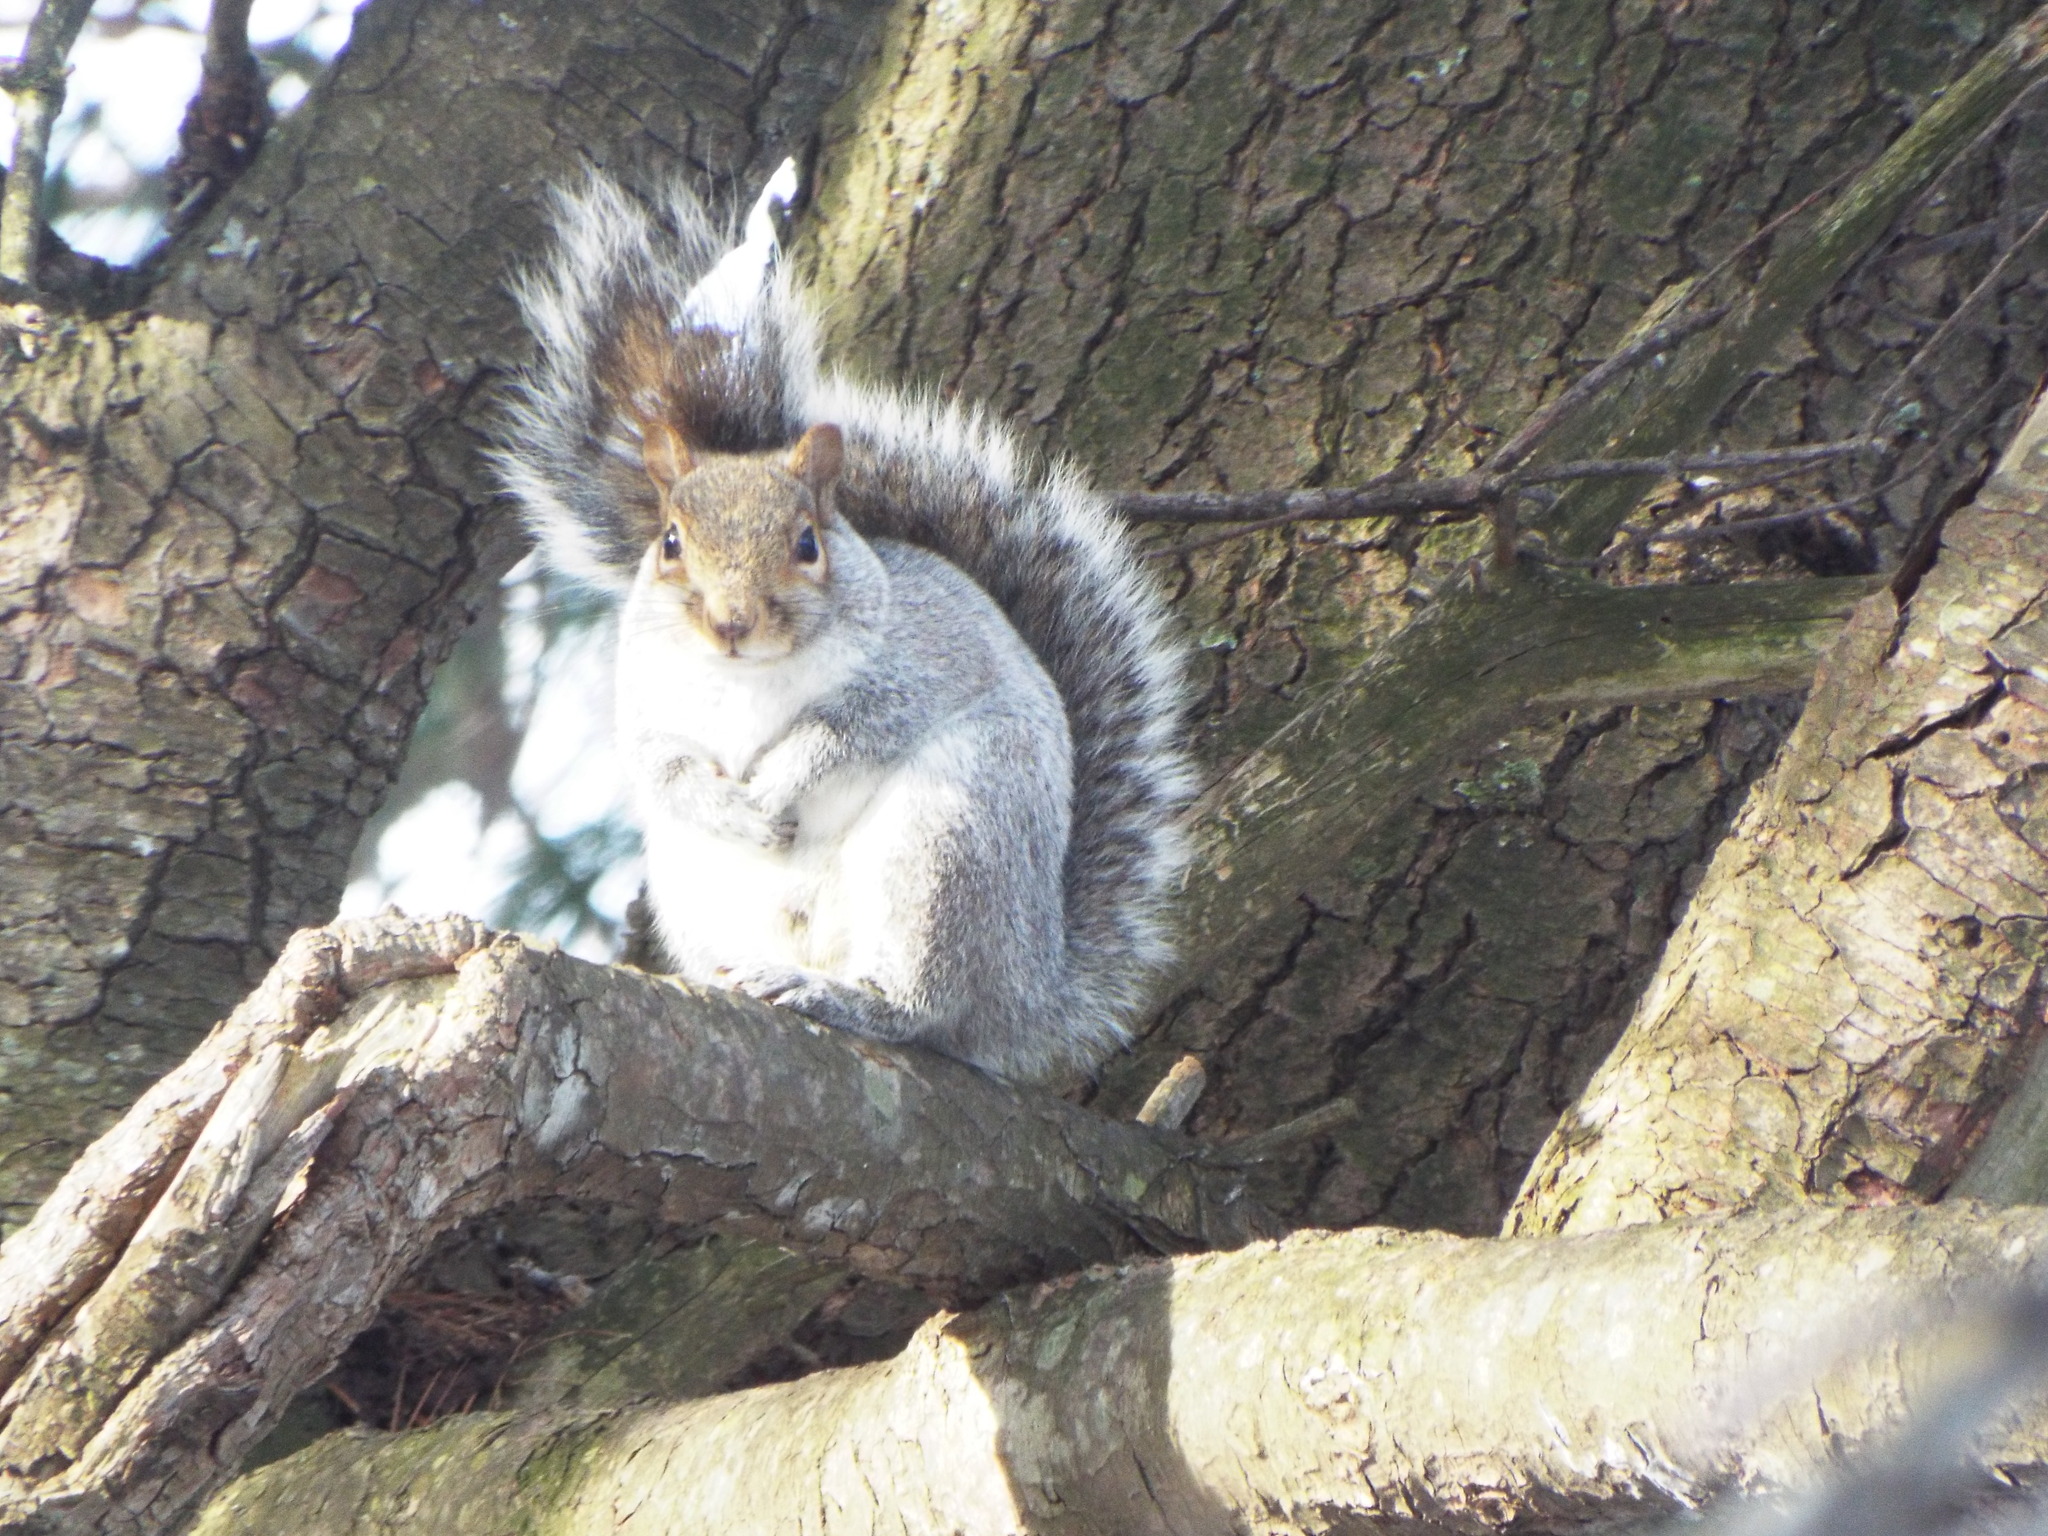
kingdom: Animalia
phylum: Chordata
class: Mammalia
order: Rodentia
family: Sciuridae
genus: Sciurus
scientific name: Sciurus carolinensis
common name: Eastern gray squirrel
